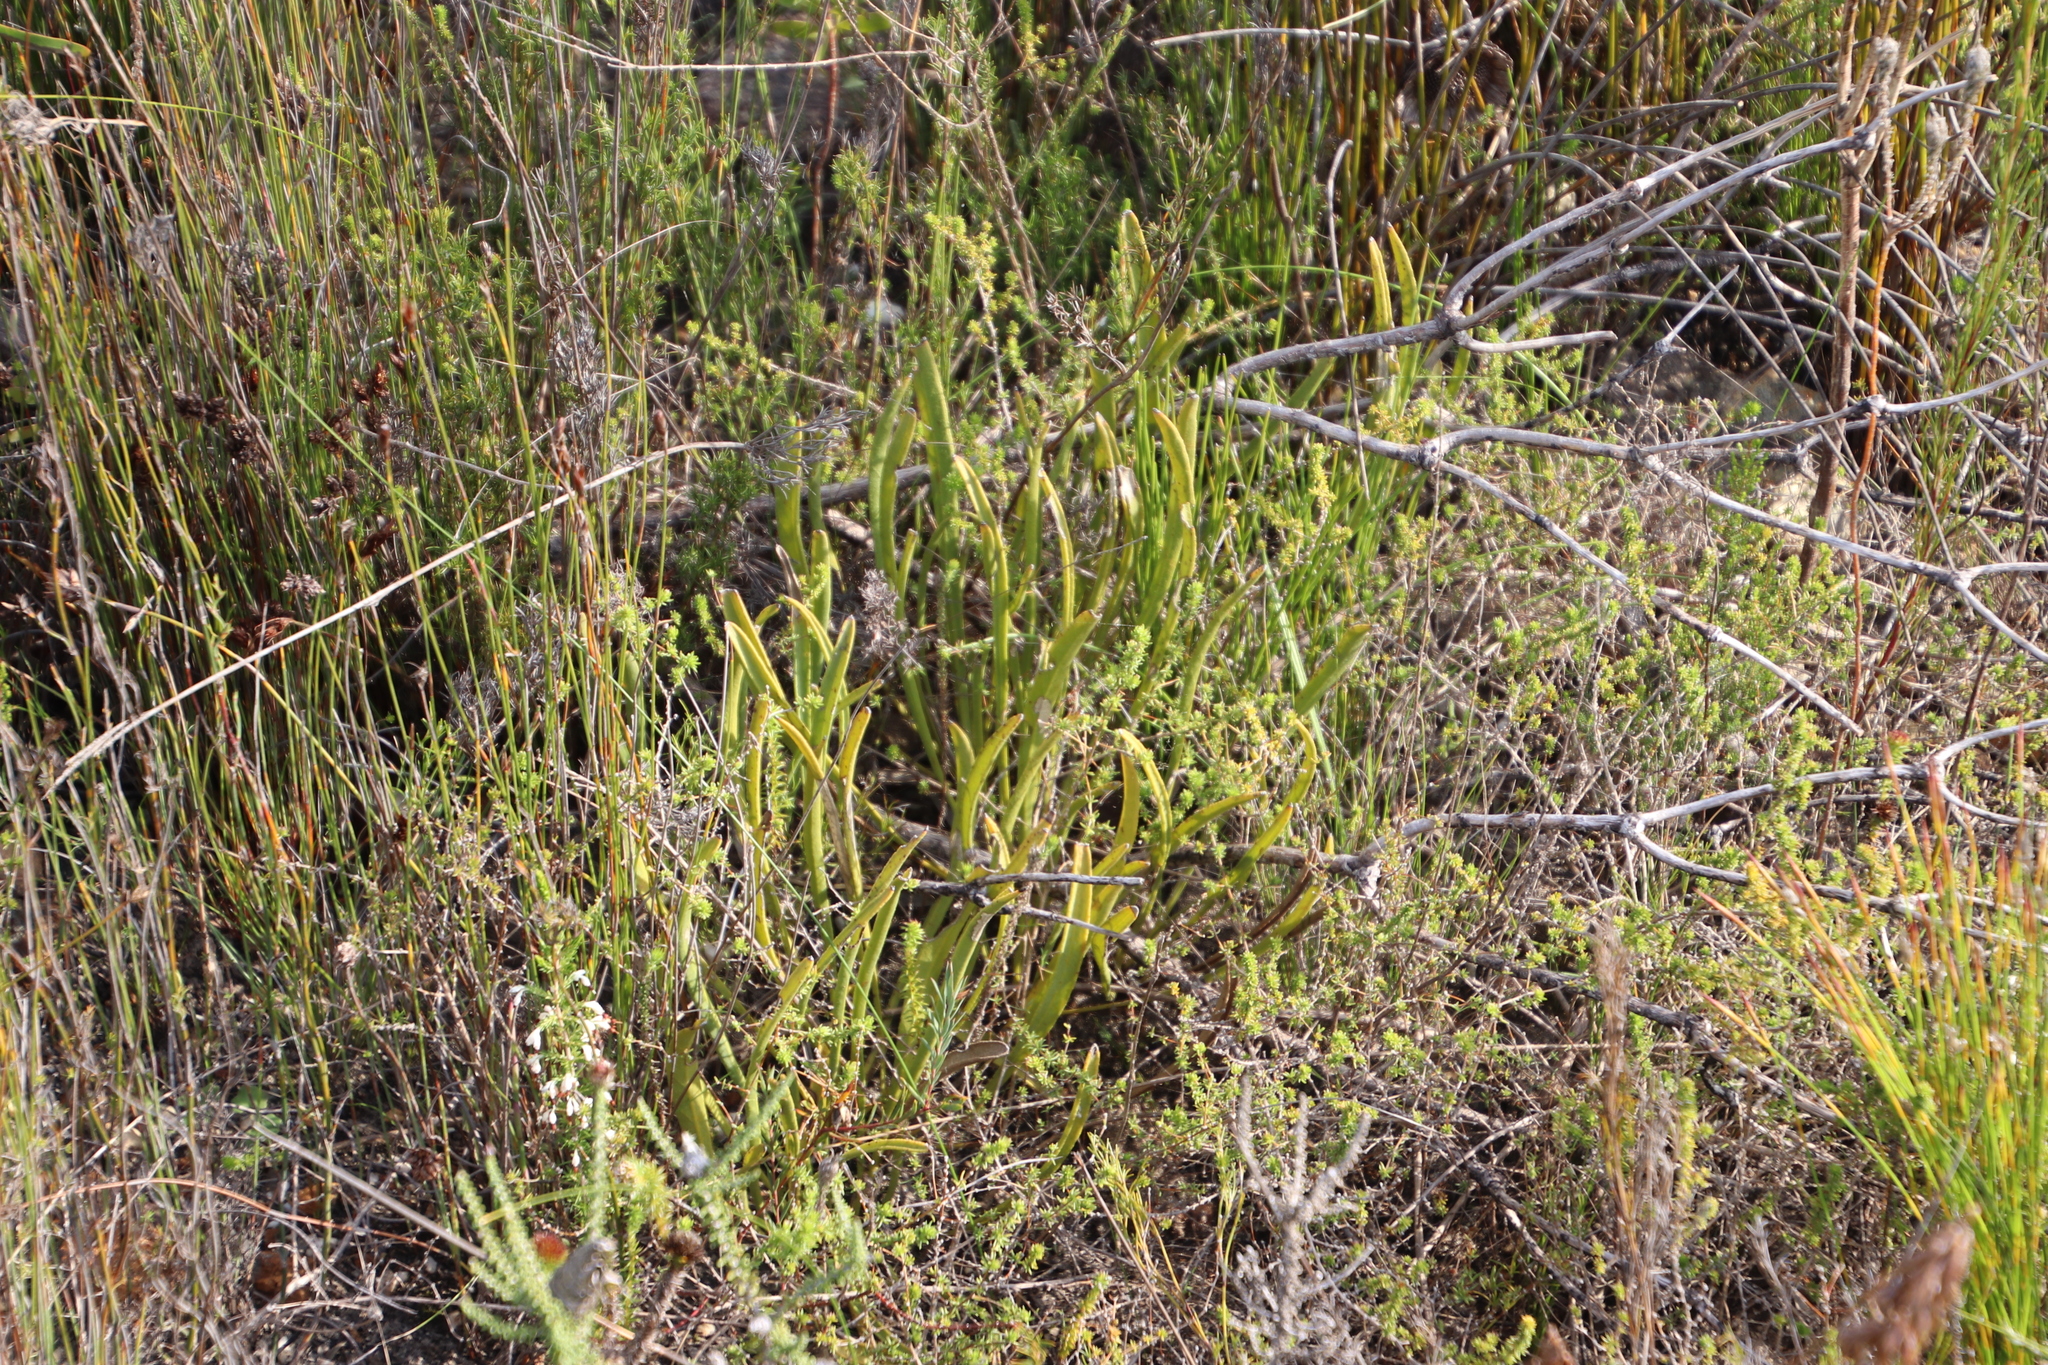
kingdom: Plantae
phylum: Tracheophyta
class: Magnoliopsida
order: Proteales
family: Proteaceae
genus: Protea
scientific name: Protea scabra
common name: Sandpaper-leaf sugarbush
